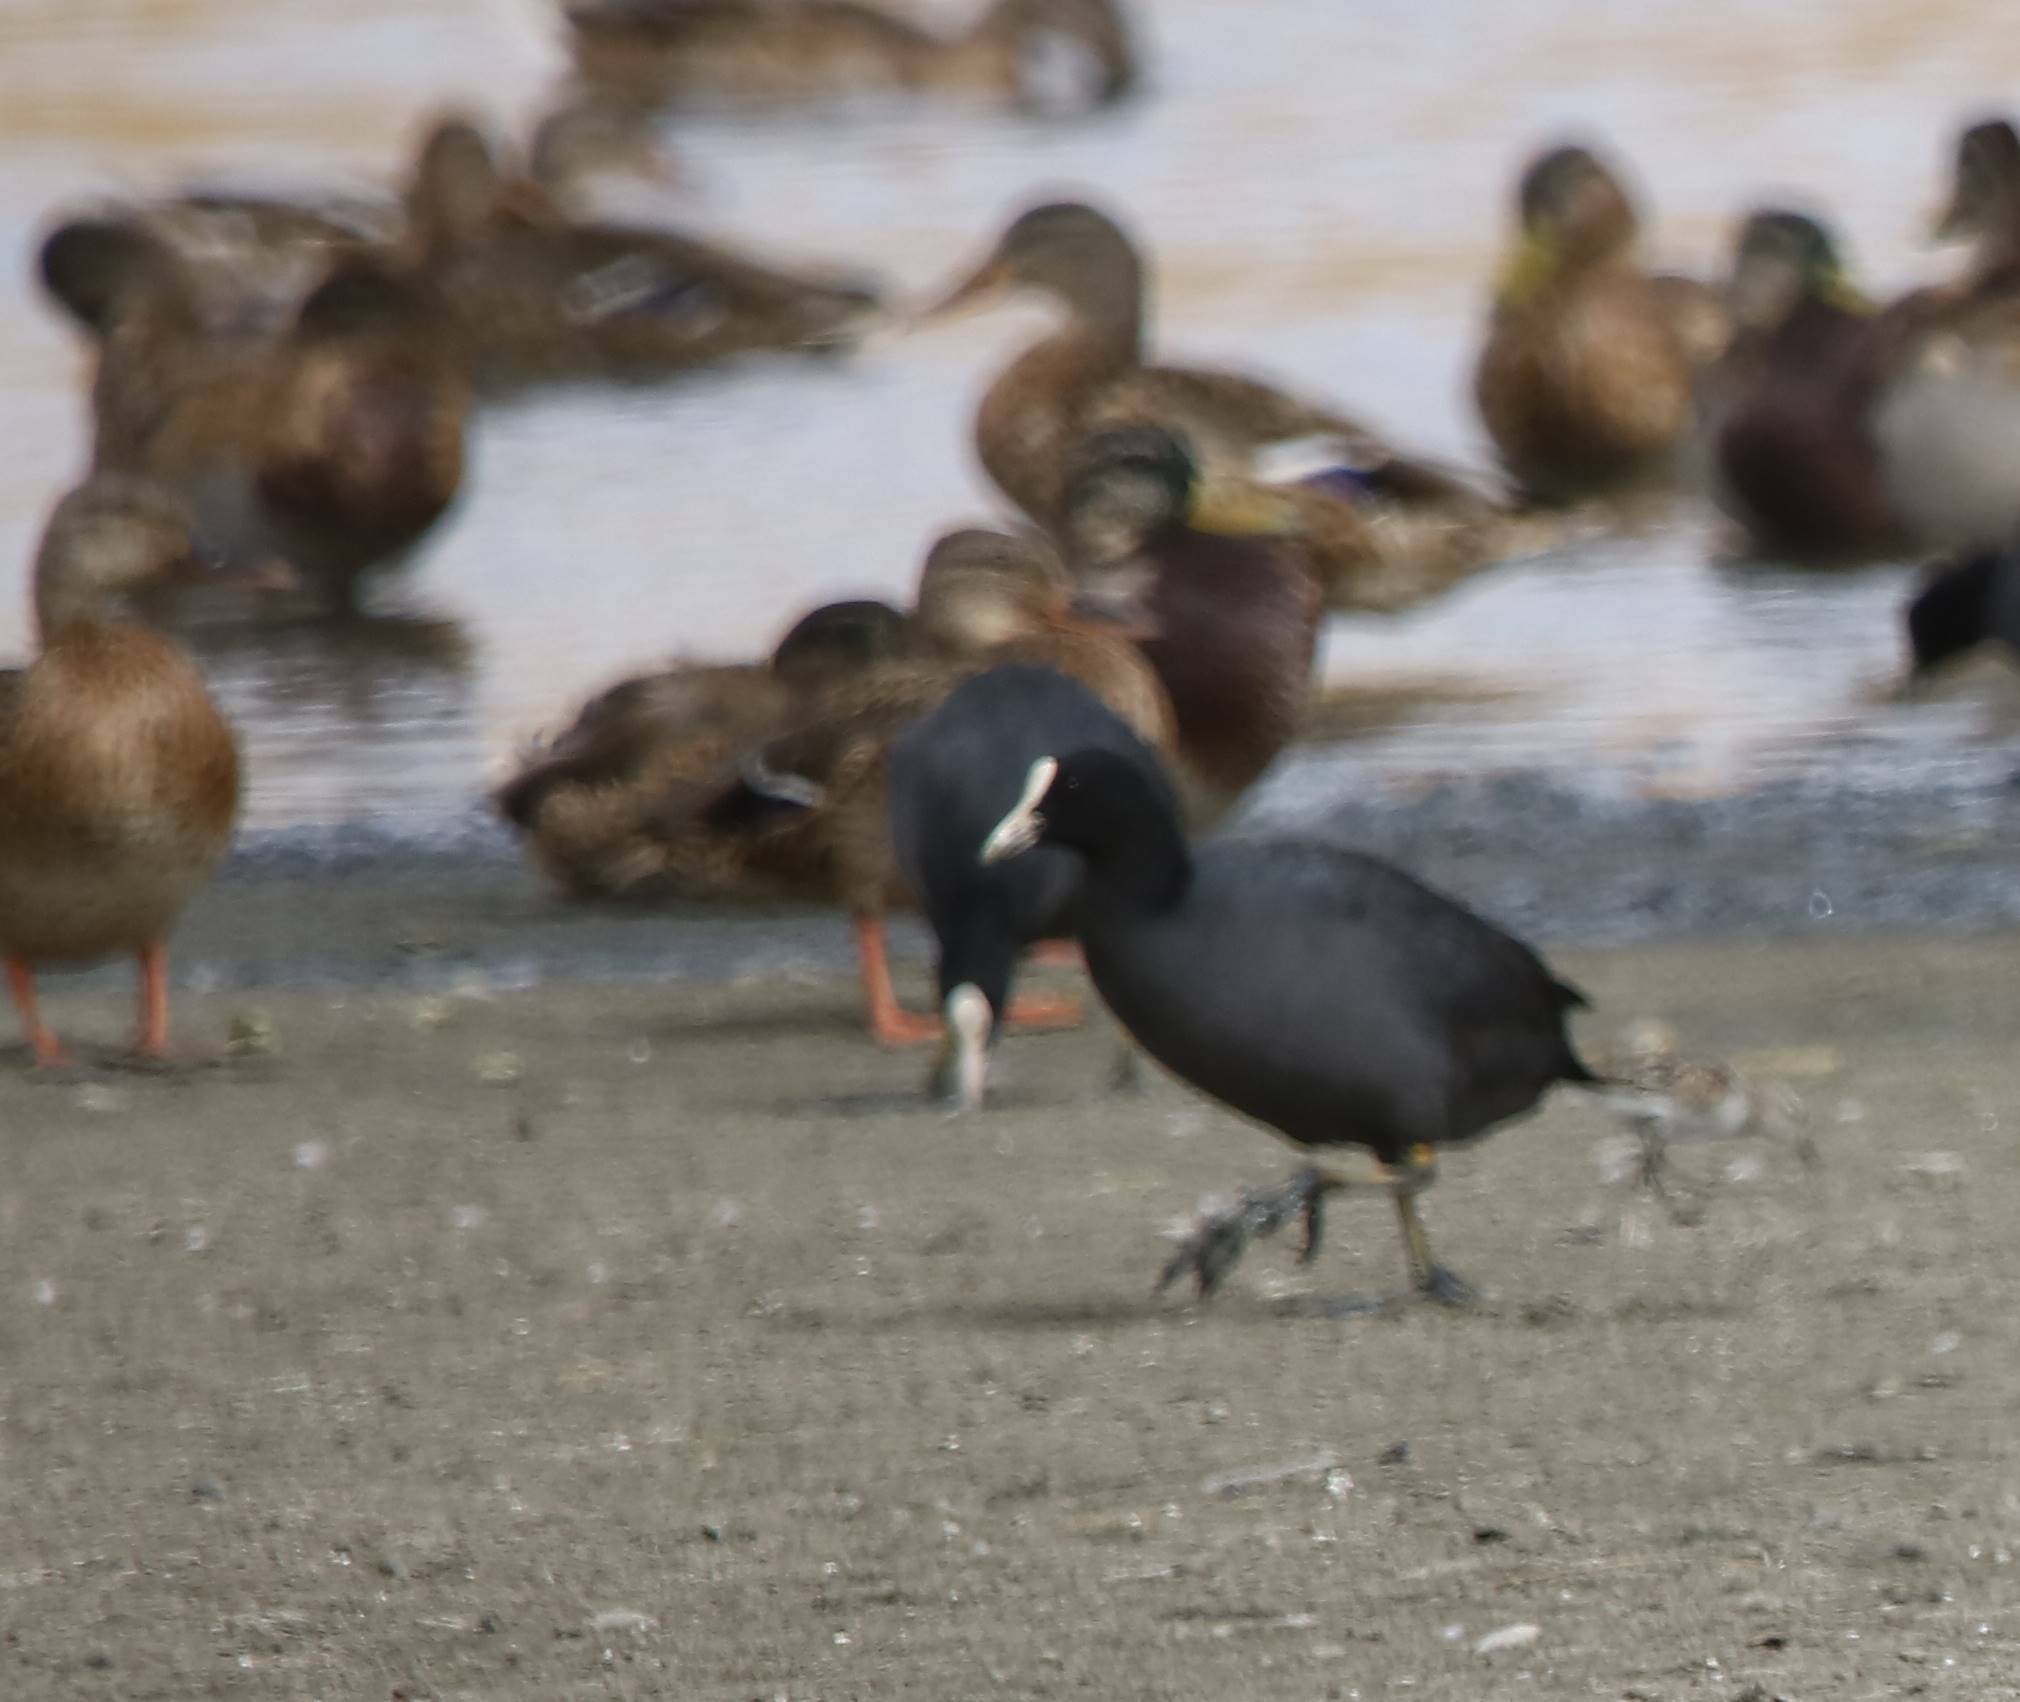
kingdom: Animalia
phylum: Chordata
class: Aves
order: Gruiformes
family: Rallidae
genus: Fulica
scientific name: Fulica atra
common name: Eurasian coot
